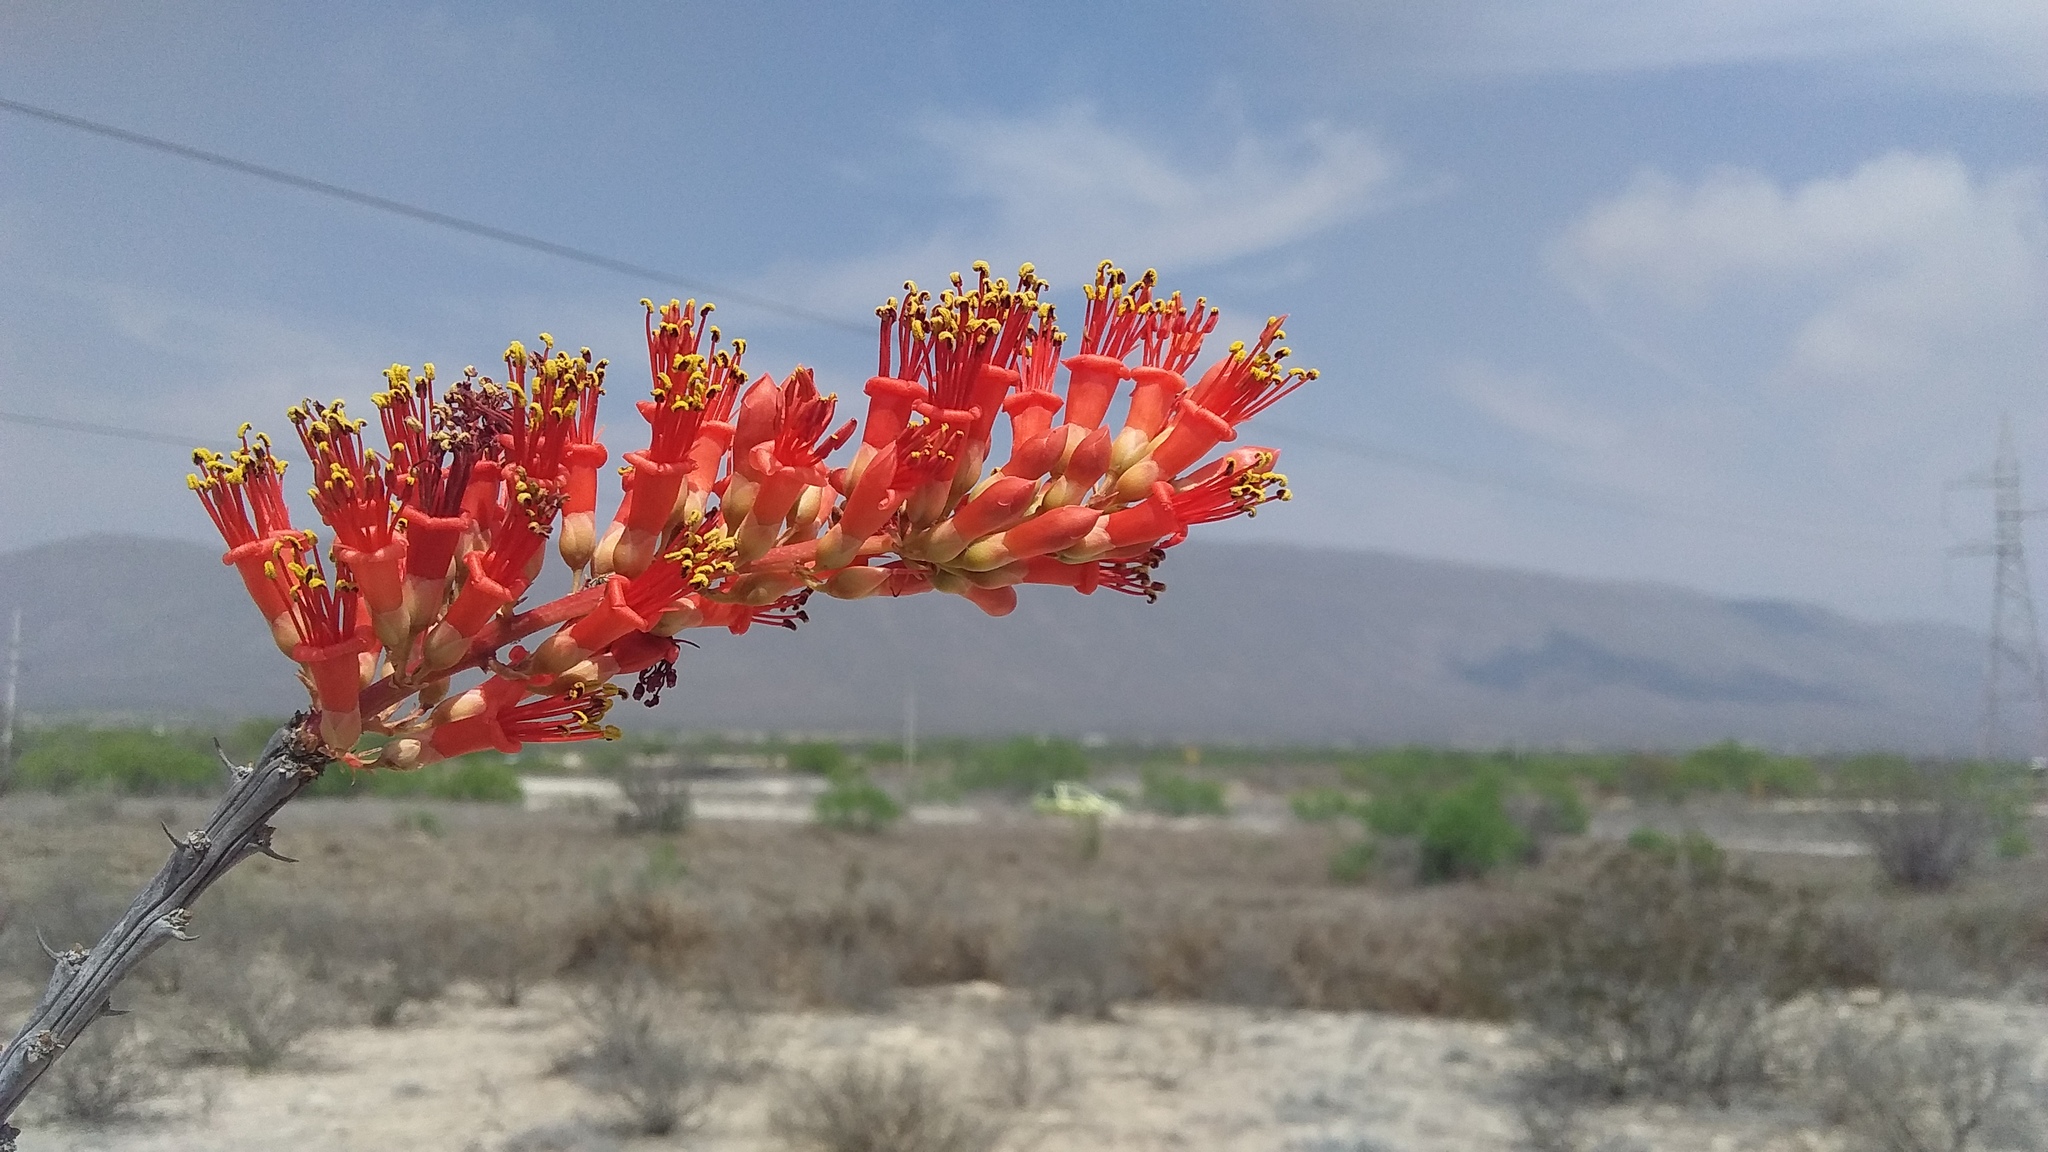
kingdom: Plantae
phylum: Tracheophyta
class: Magnoliopsida
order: Ericales
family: Fouquieriaceae
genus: Fouquieria
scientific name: Fouquieria splendens
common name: Vine-cactus
